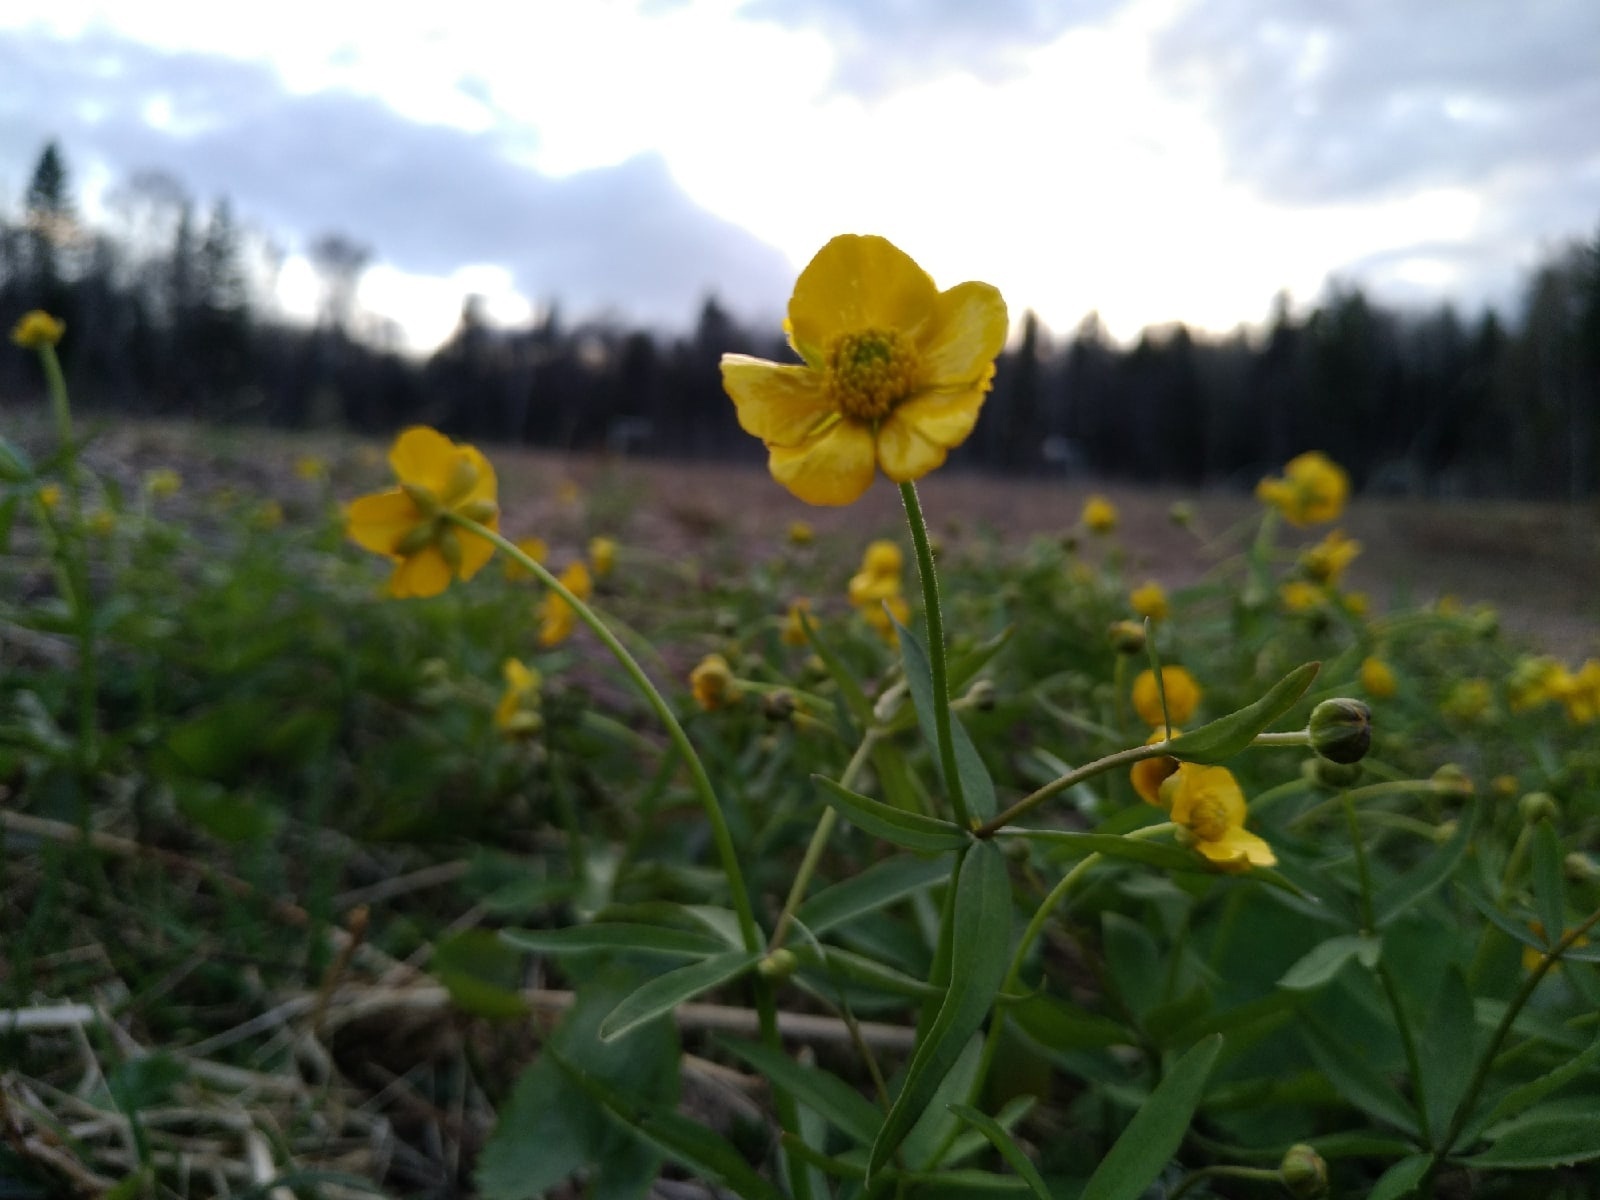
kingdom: Plantae
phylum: Tracheophyta
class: Magnoliopsida
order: Ranunculales
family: Ranunculaceae
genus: Ranunculus
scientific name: Ranunculus monophyllus
